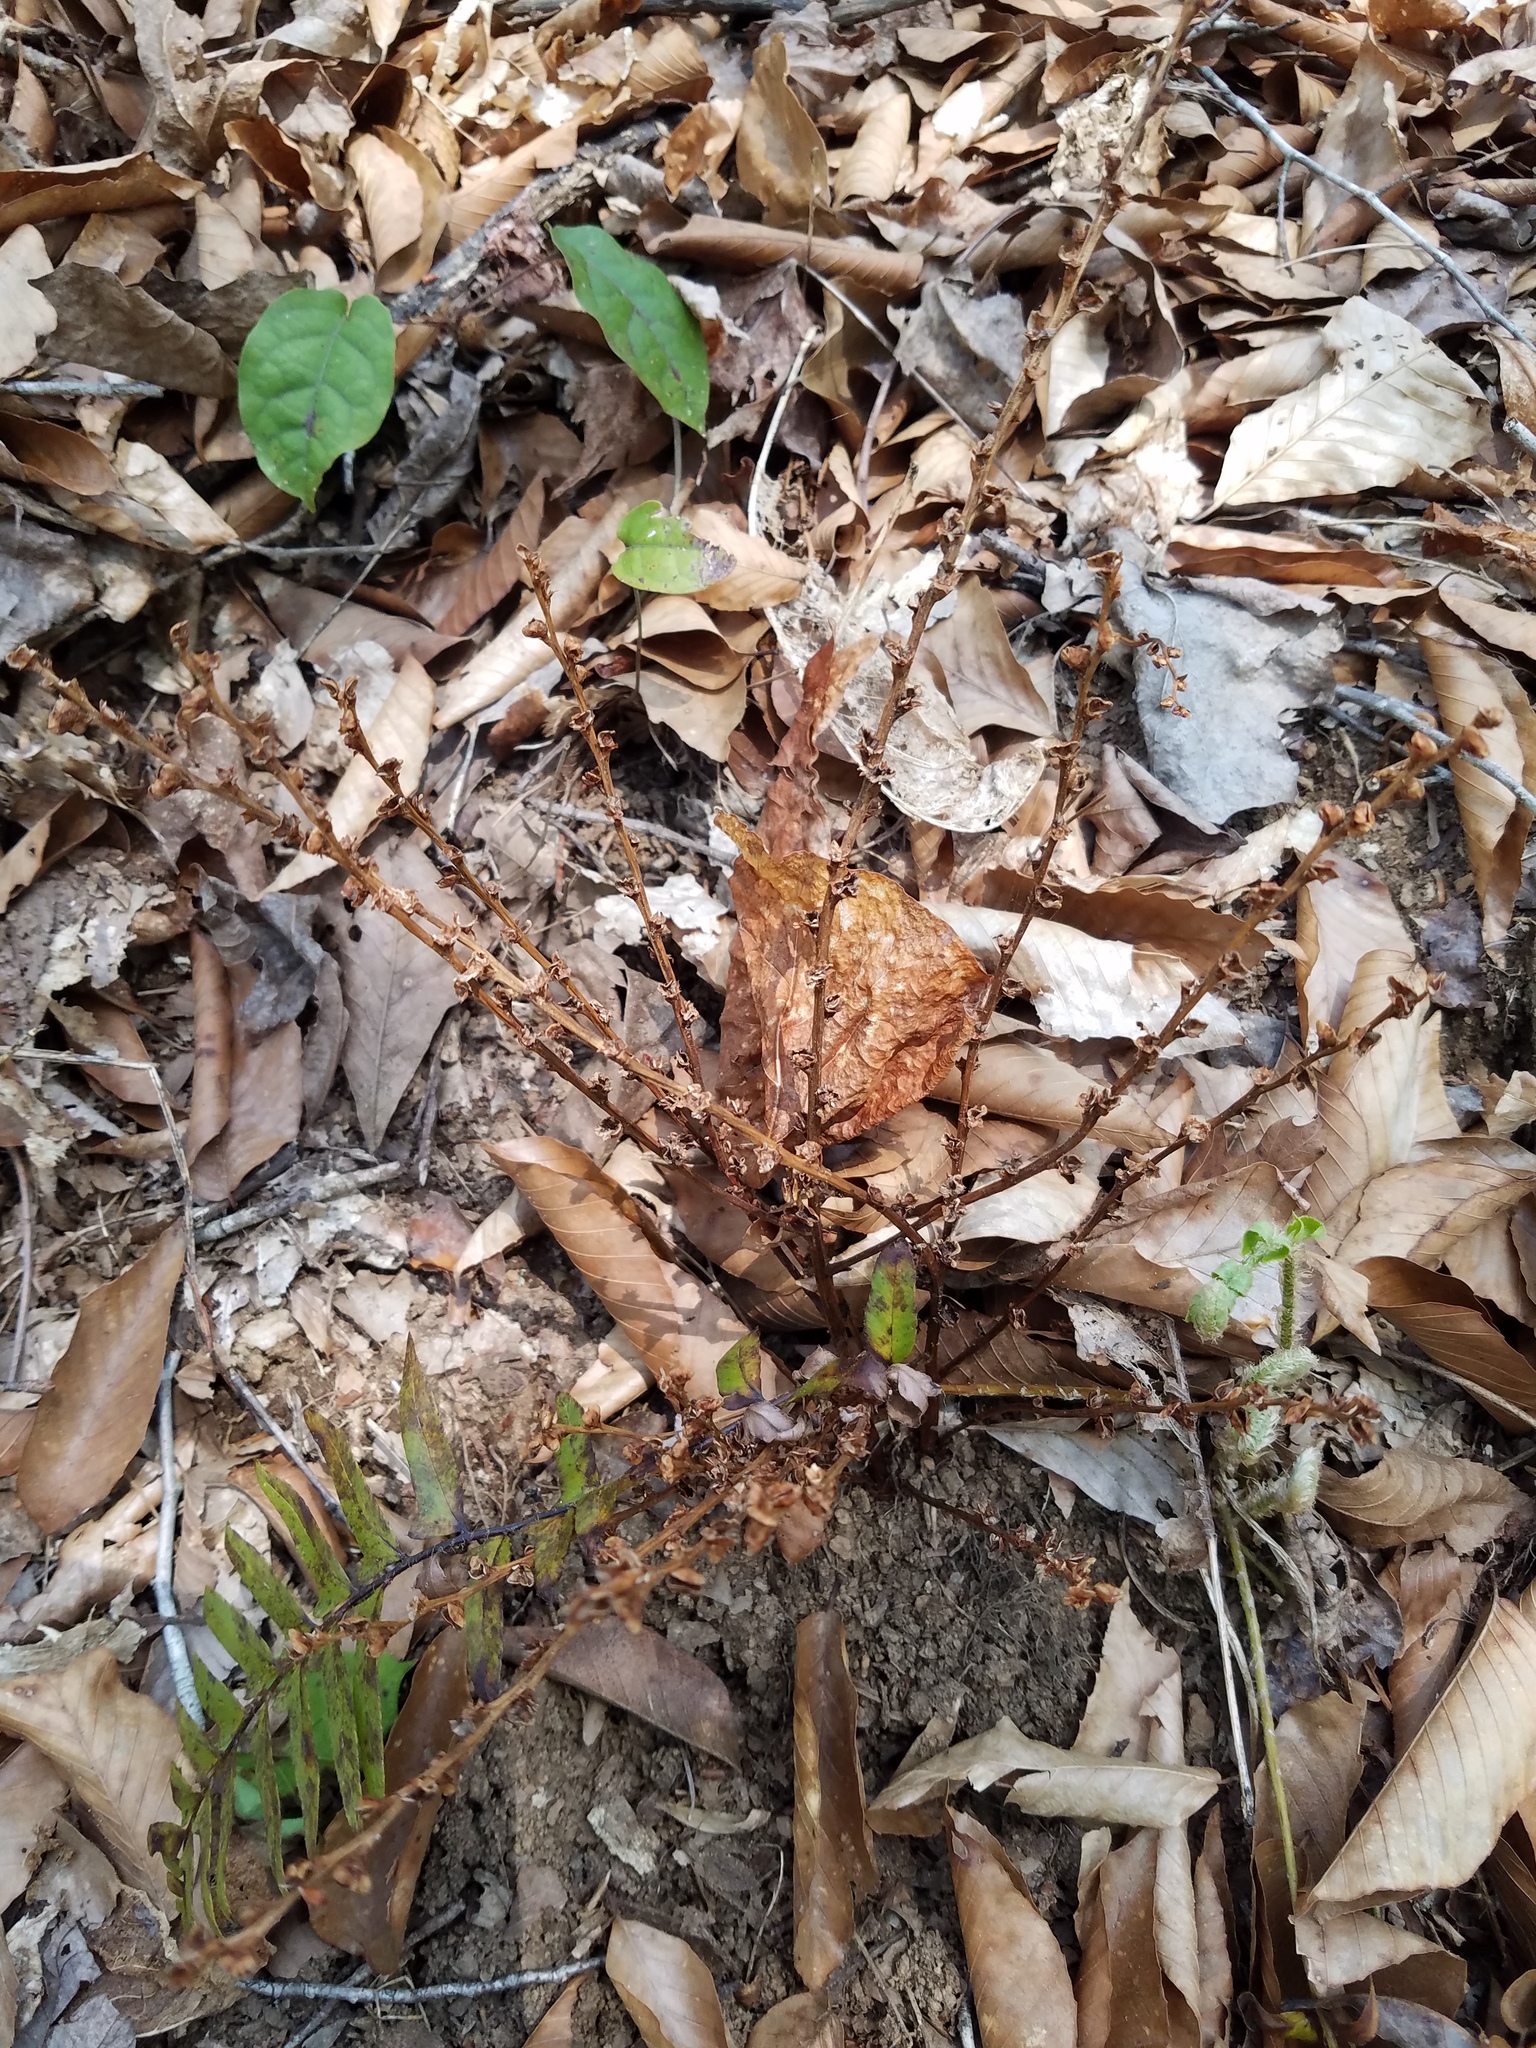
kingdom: Plantae
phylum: Tracheophyta
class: Magnoliopsida
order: Lamiales
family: Orobanchaceae
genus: Epifagus
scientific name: Epifagus virginiana
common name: Beechdrops
